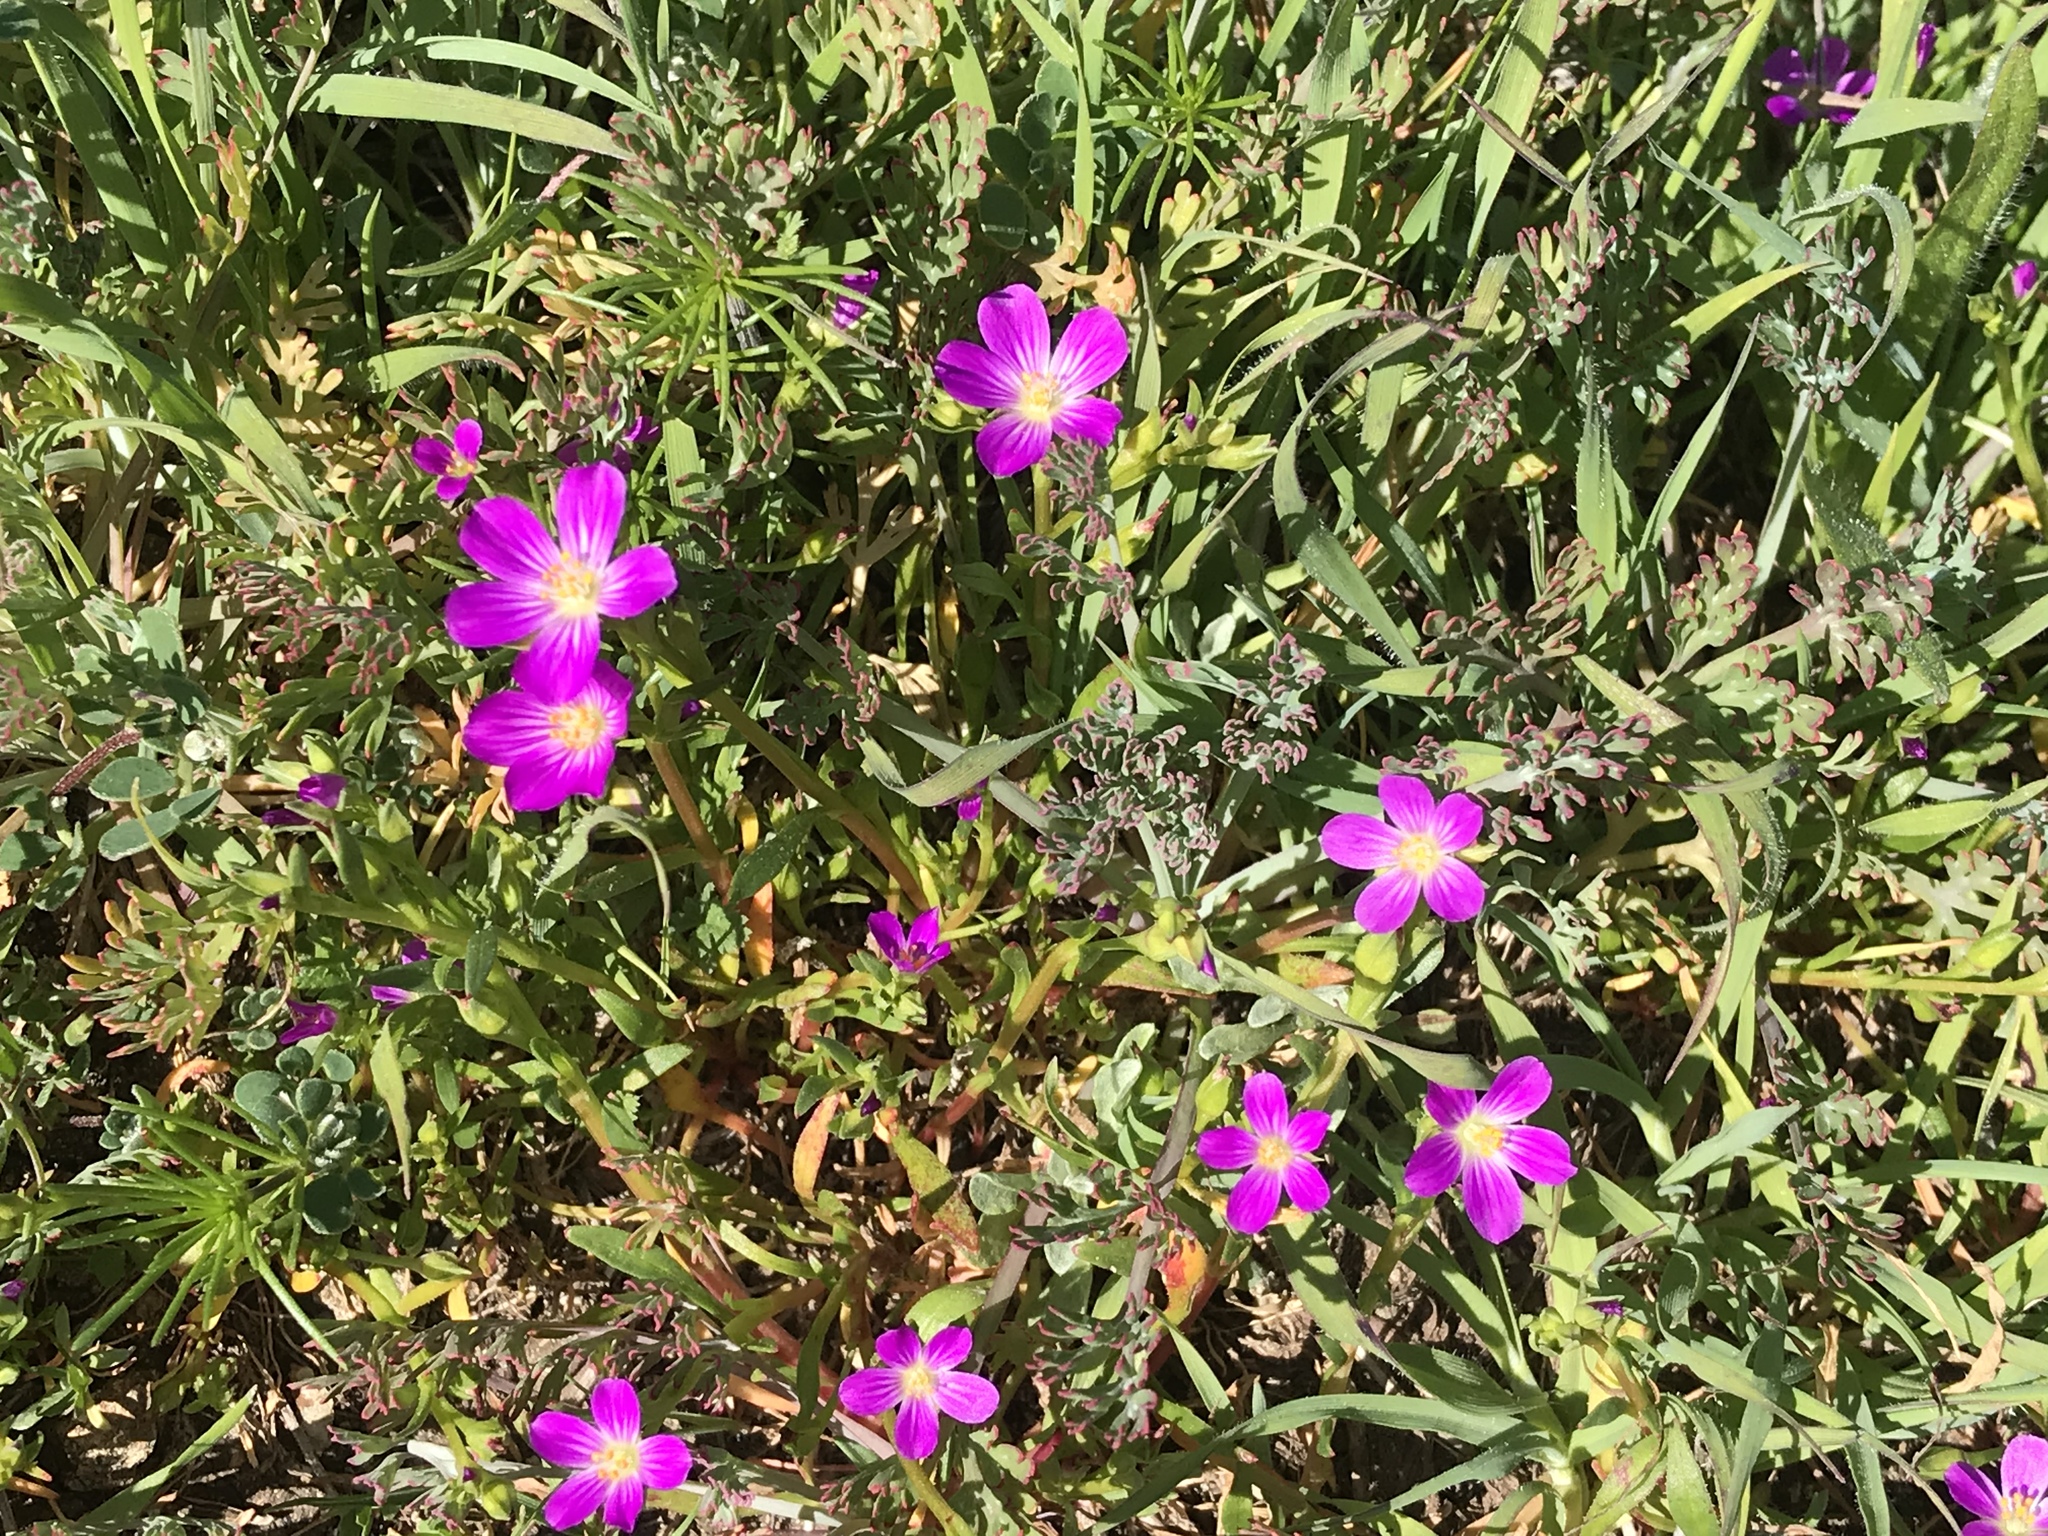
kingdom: Plantae
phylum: Tracheophyta
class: Magnoliopsida
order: Caryophyllales
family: Montiaceae
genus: Calandrinia
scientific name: Calandrinia menziesii
